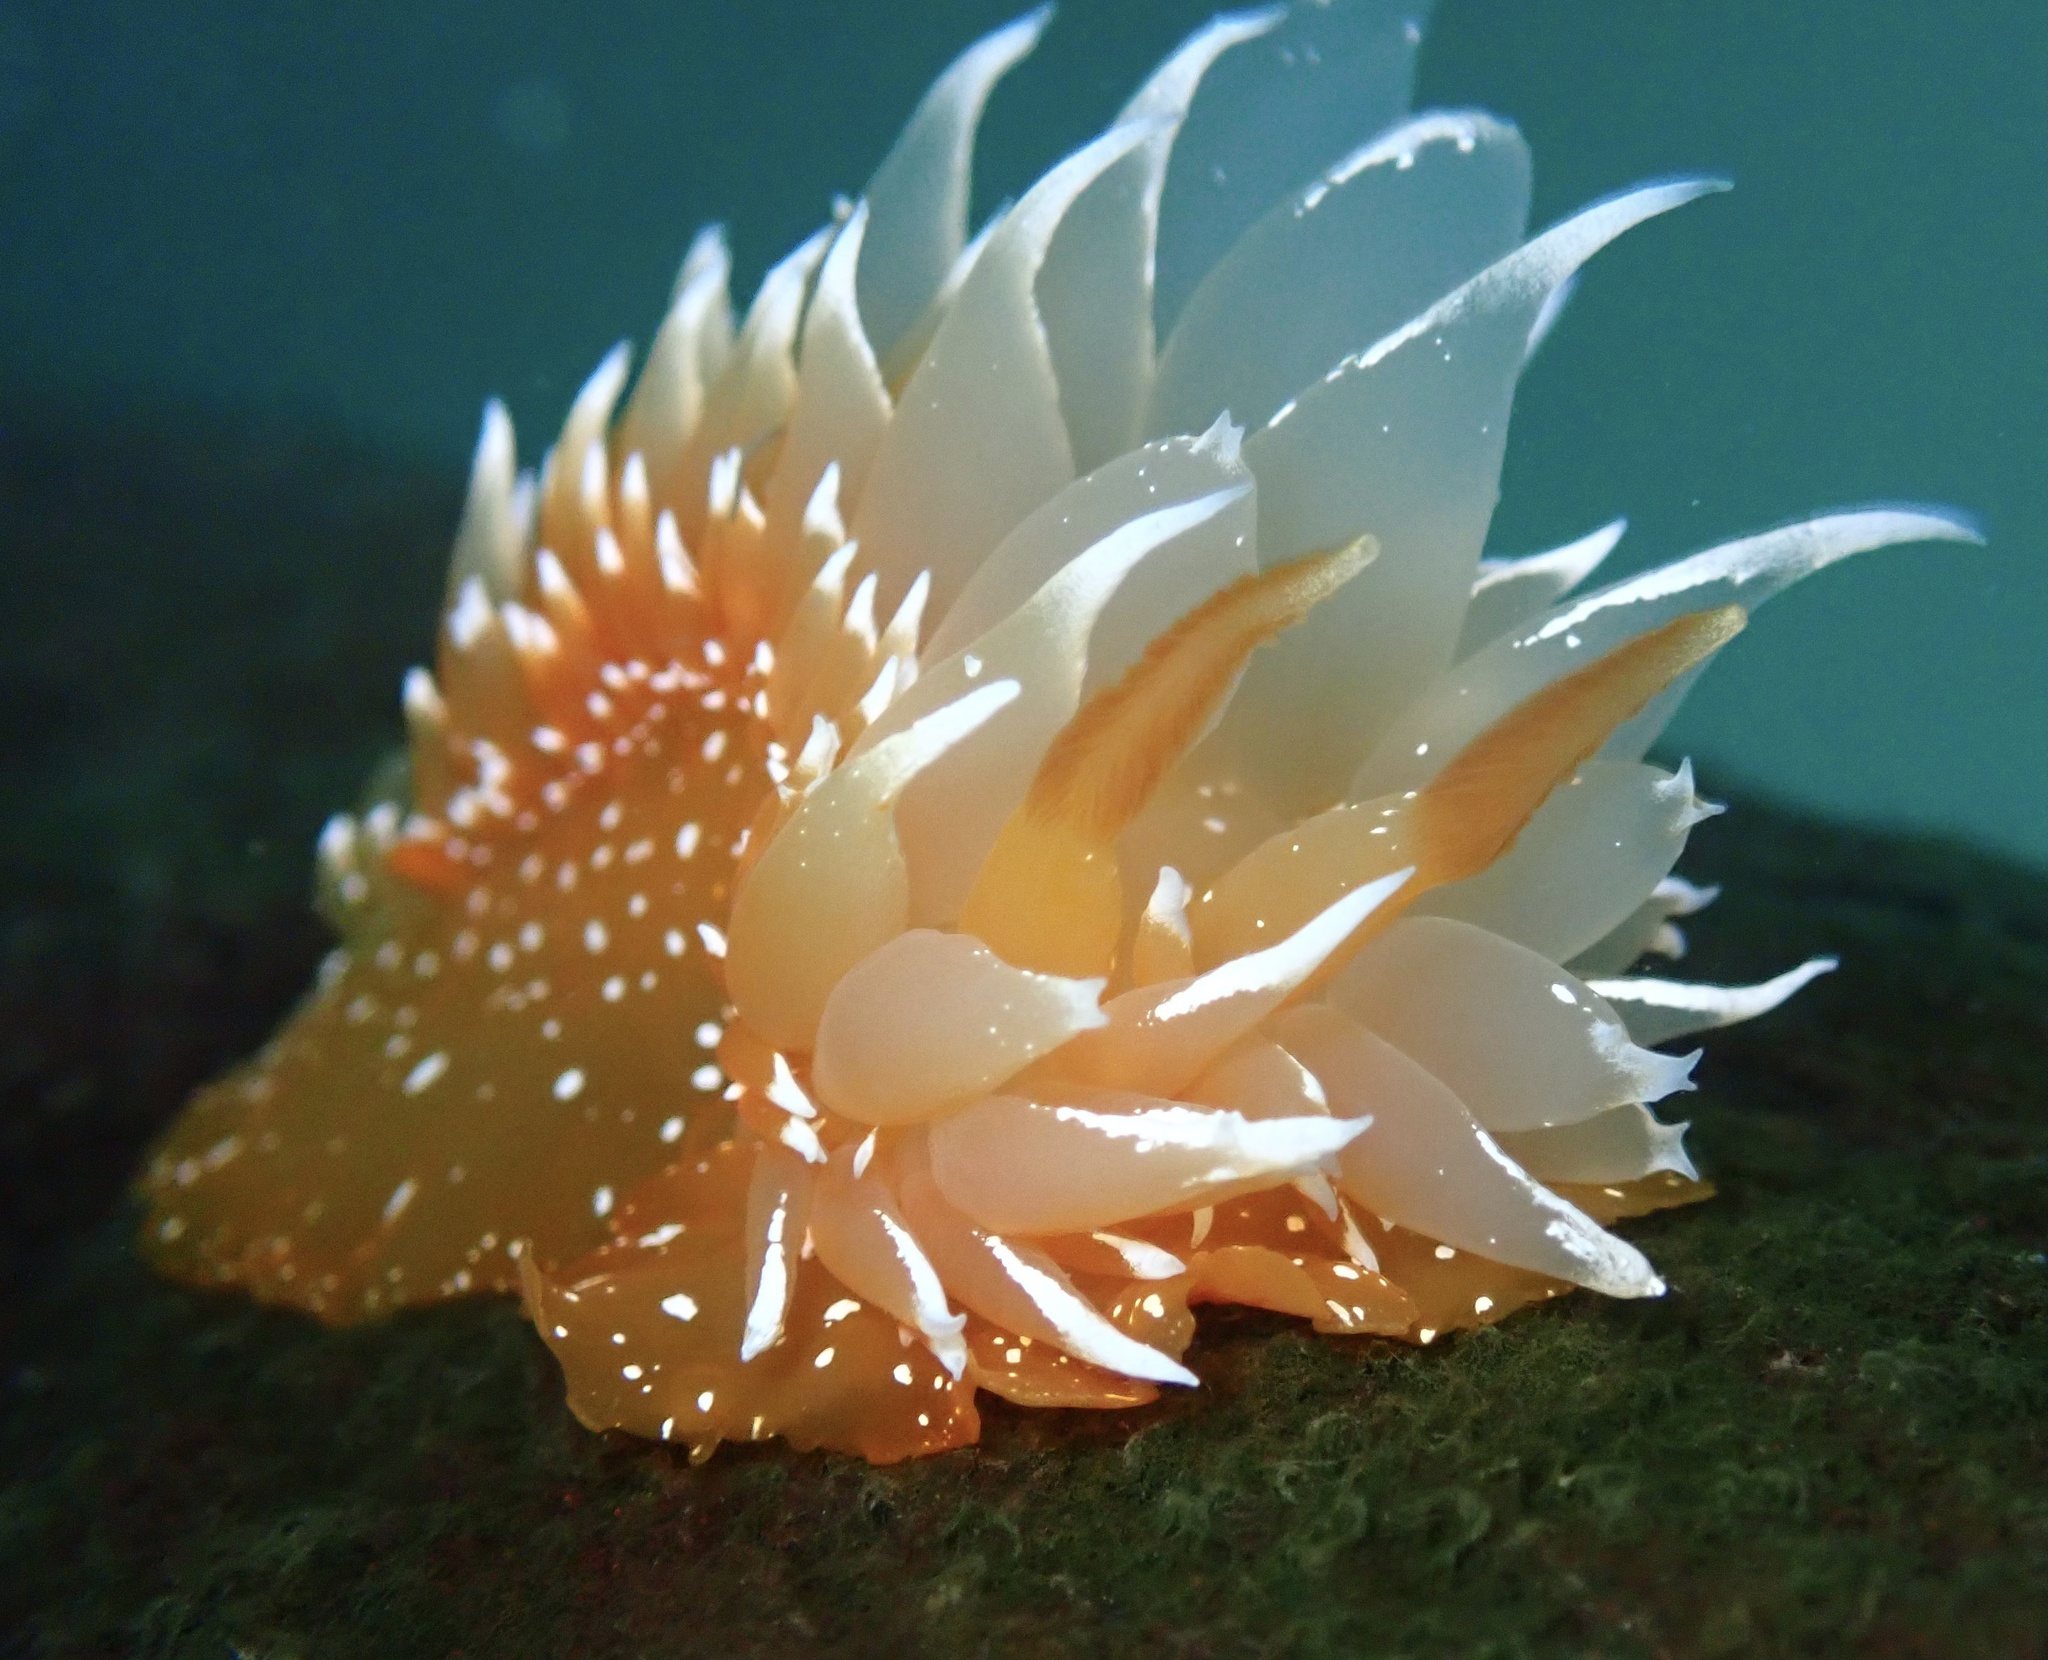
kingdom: Animalia
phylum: Mollusca
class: Gastropoda
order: Nudibranchia
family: Dironidae
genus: Dirona
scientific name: Dirona pellucida
